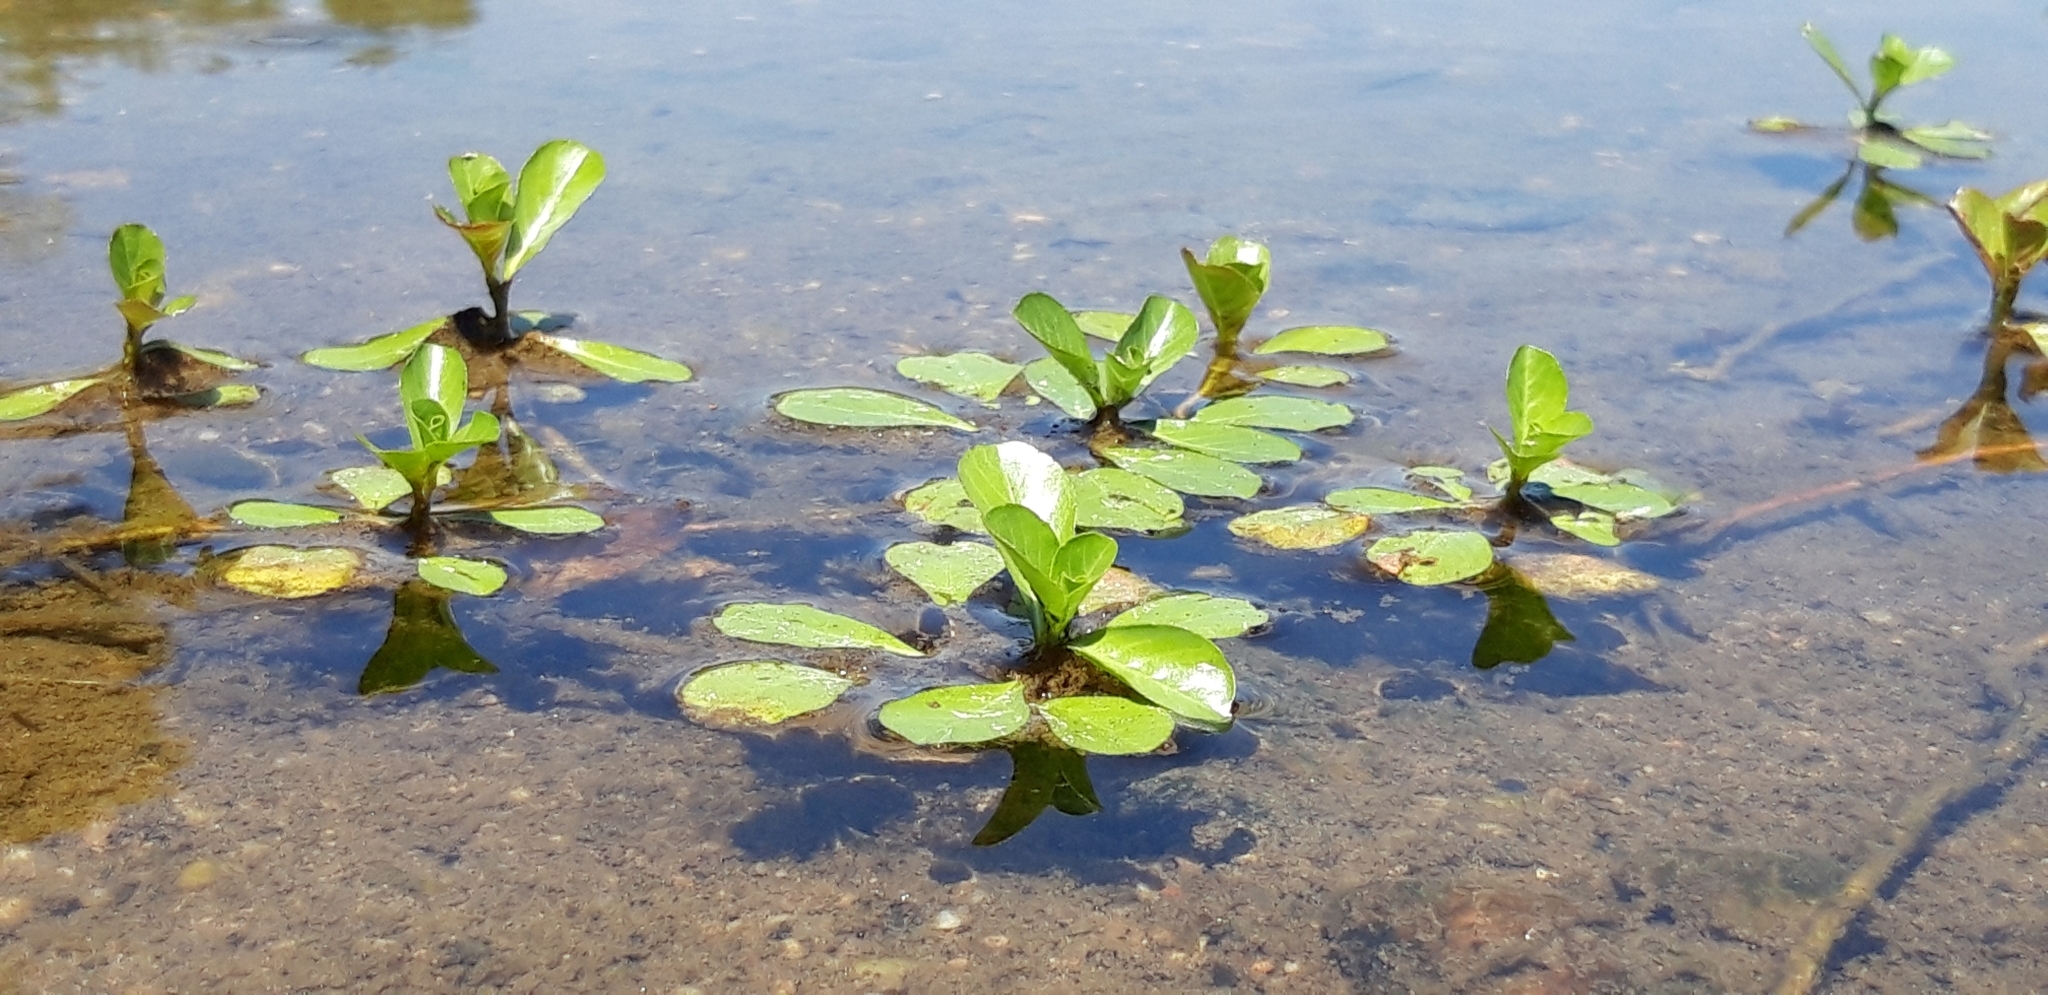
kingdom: Plantae
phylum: Tracheophyta
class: Magnoliopsida
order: Myrtales
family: Onagraceae
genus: Ludwigia
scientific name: Ludwigia grandiflora
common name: Water primrose
